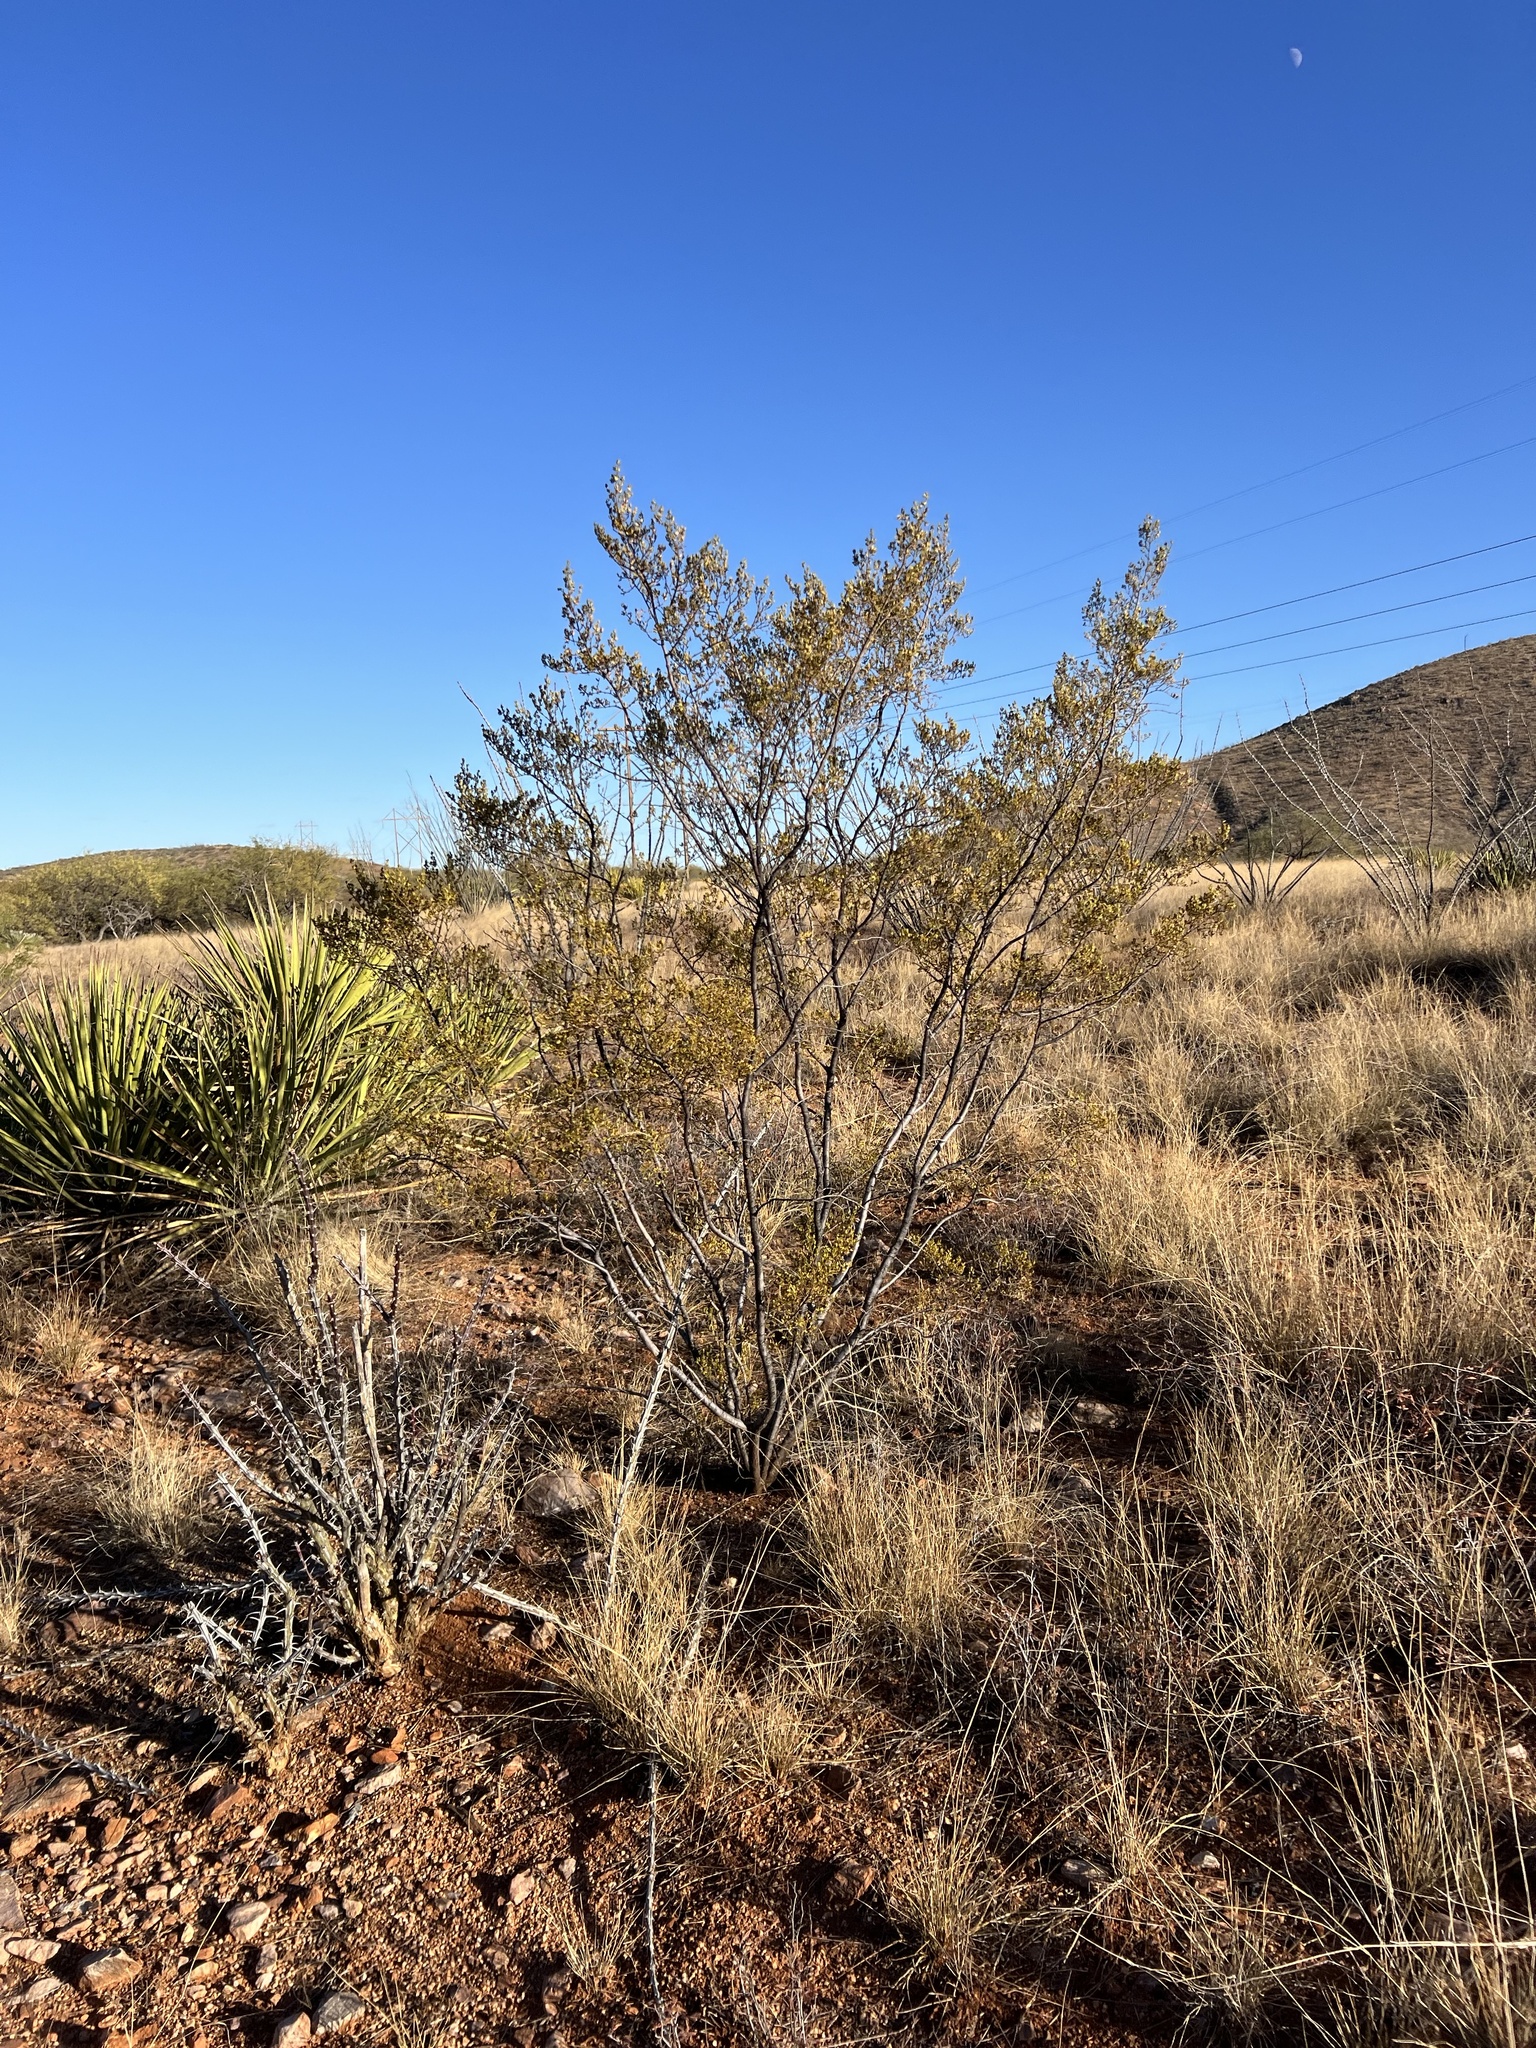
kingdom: Plantae
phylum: Tracheophyta
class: Magnoliopsida
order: Zygophyllales
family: Zygophyllaceae
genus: Larrea
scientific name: Larrea tridentata
